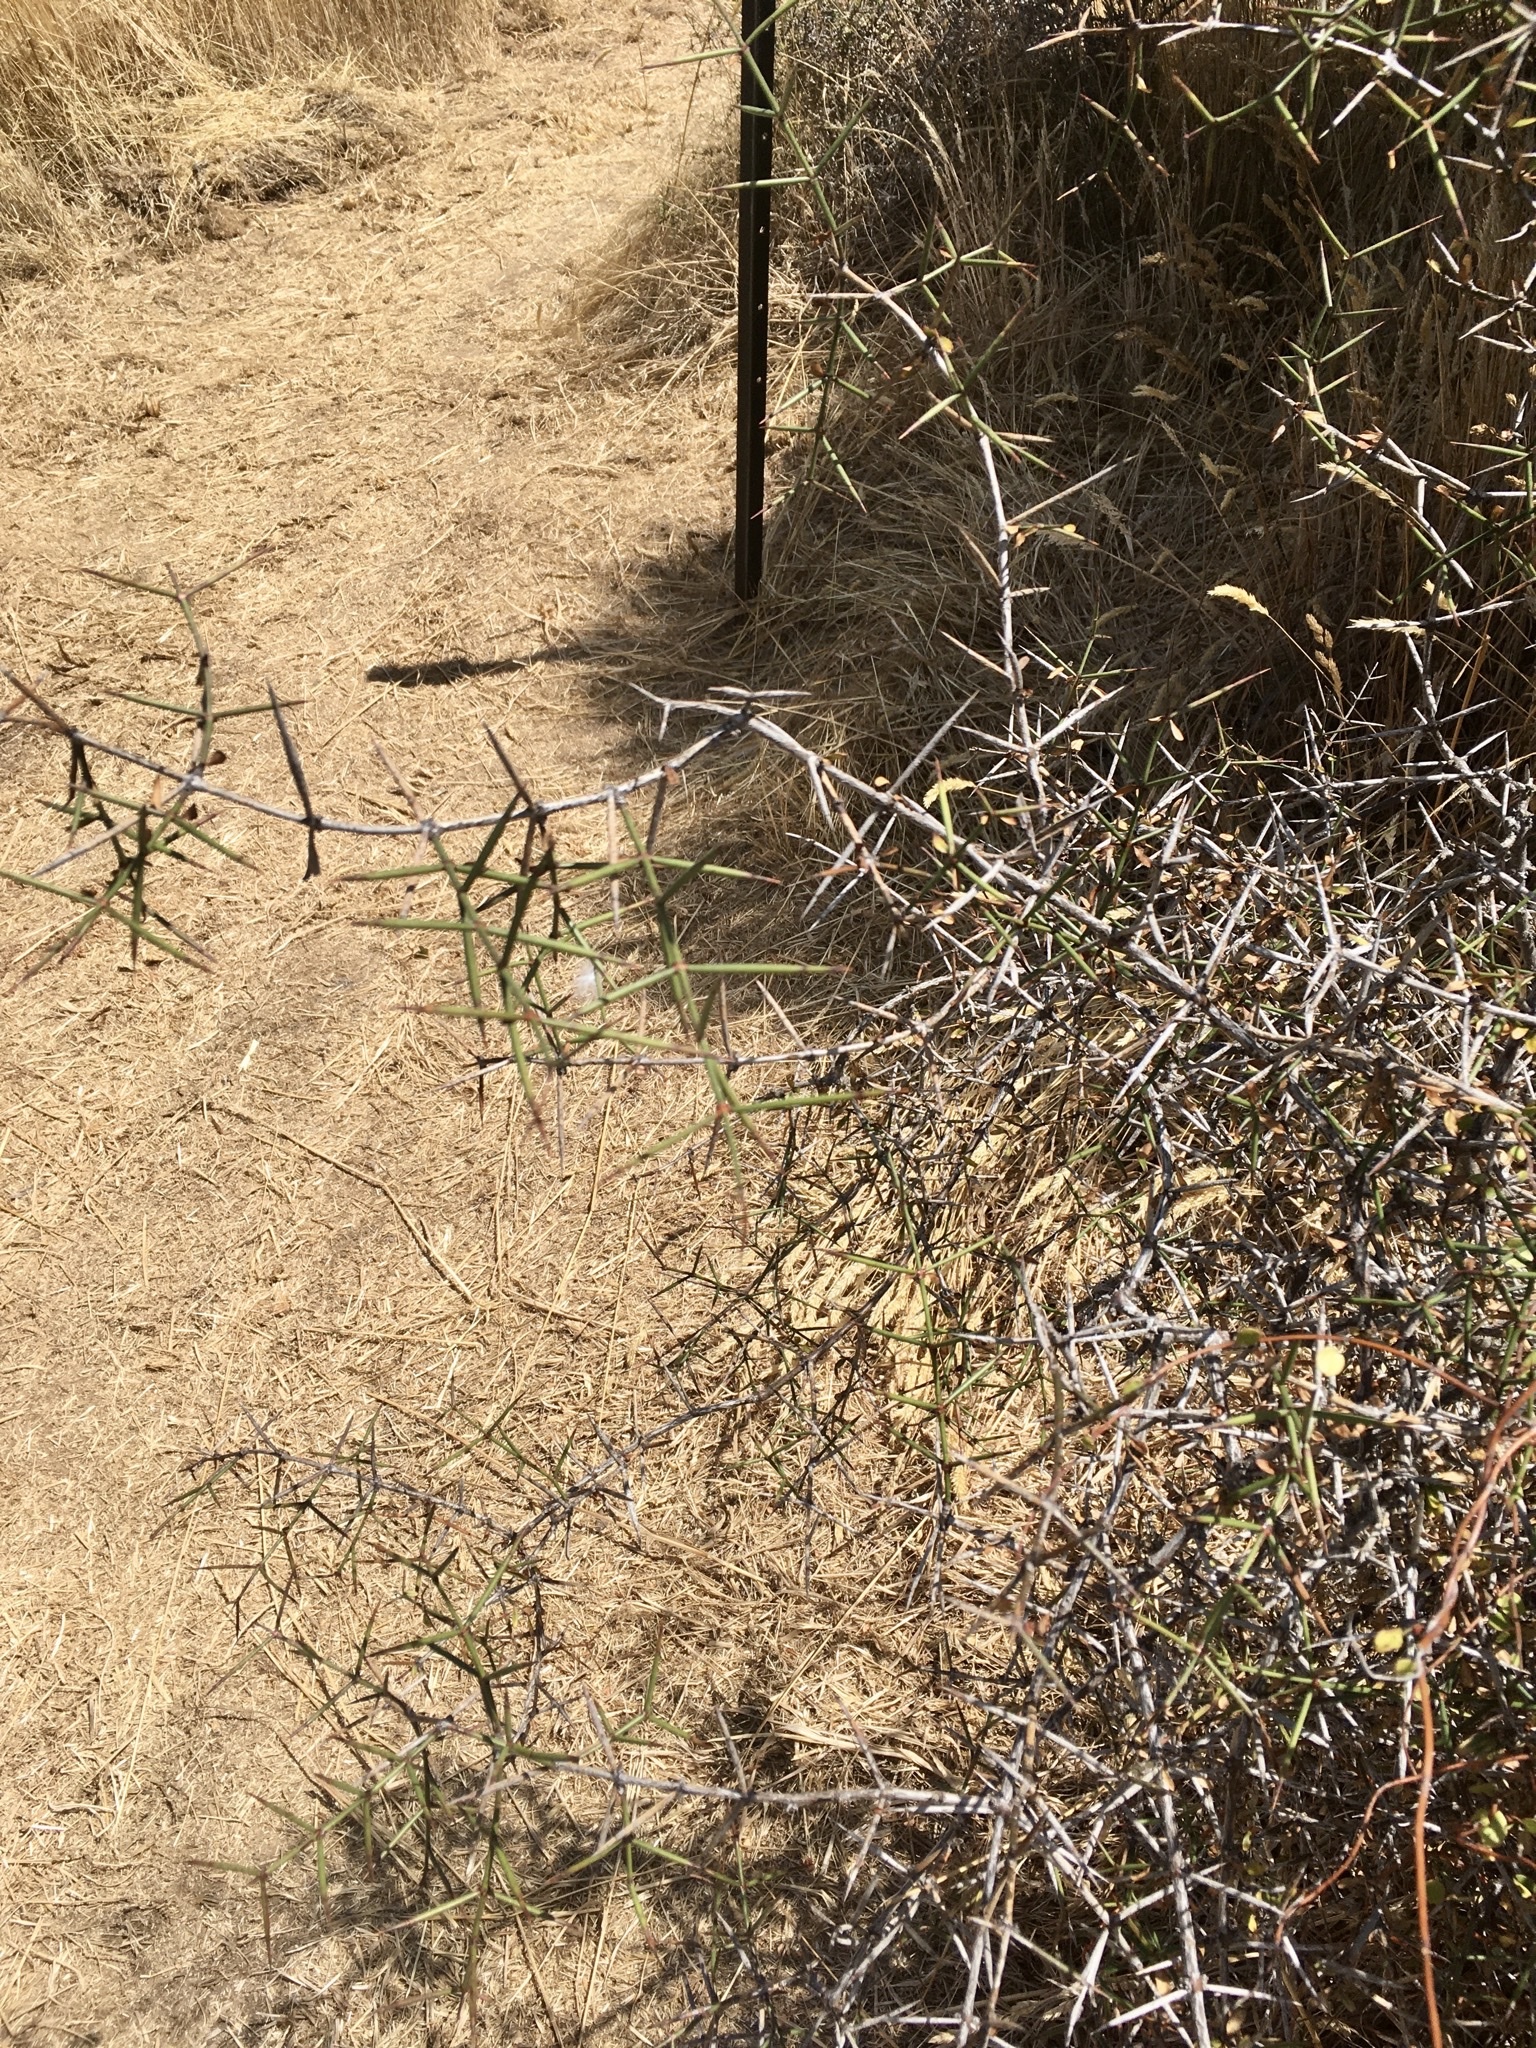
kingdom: Plantae
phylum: Tracheophyta
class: Magnoliopsida
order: Rosales
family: Rhamnaceae
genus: Discaria
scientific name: Discaria toumatou
